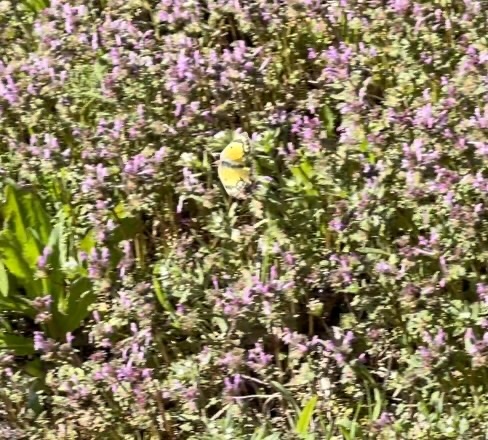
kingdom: Animalia
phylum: Arthropoda
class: Insecta
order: Lepidoptera
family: Pieridae
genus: Colias
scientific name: Colias eurytheme
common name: Alfalfa butterfly
